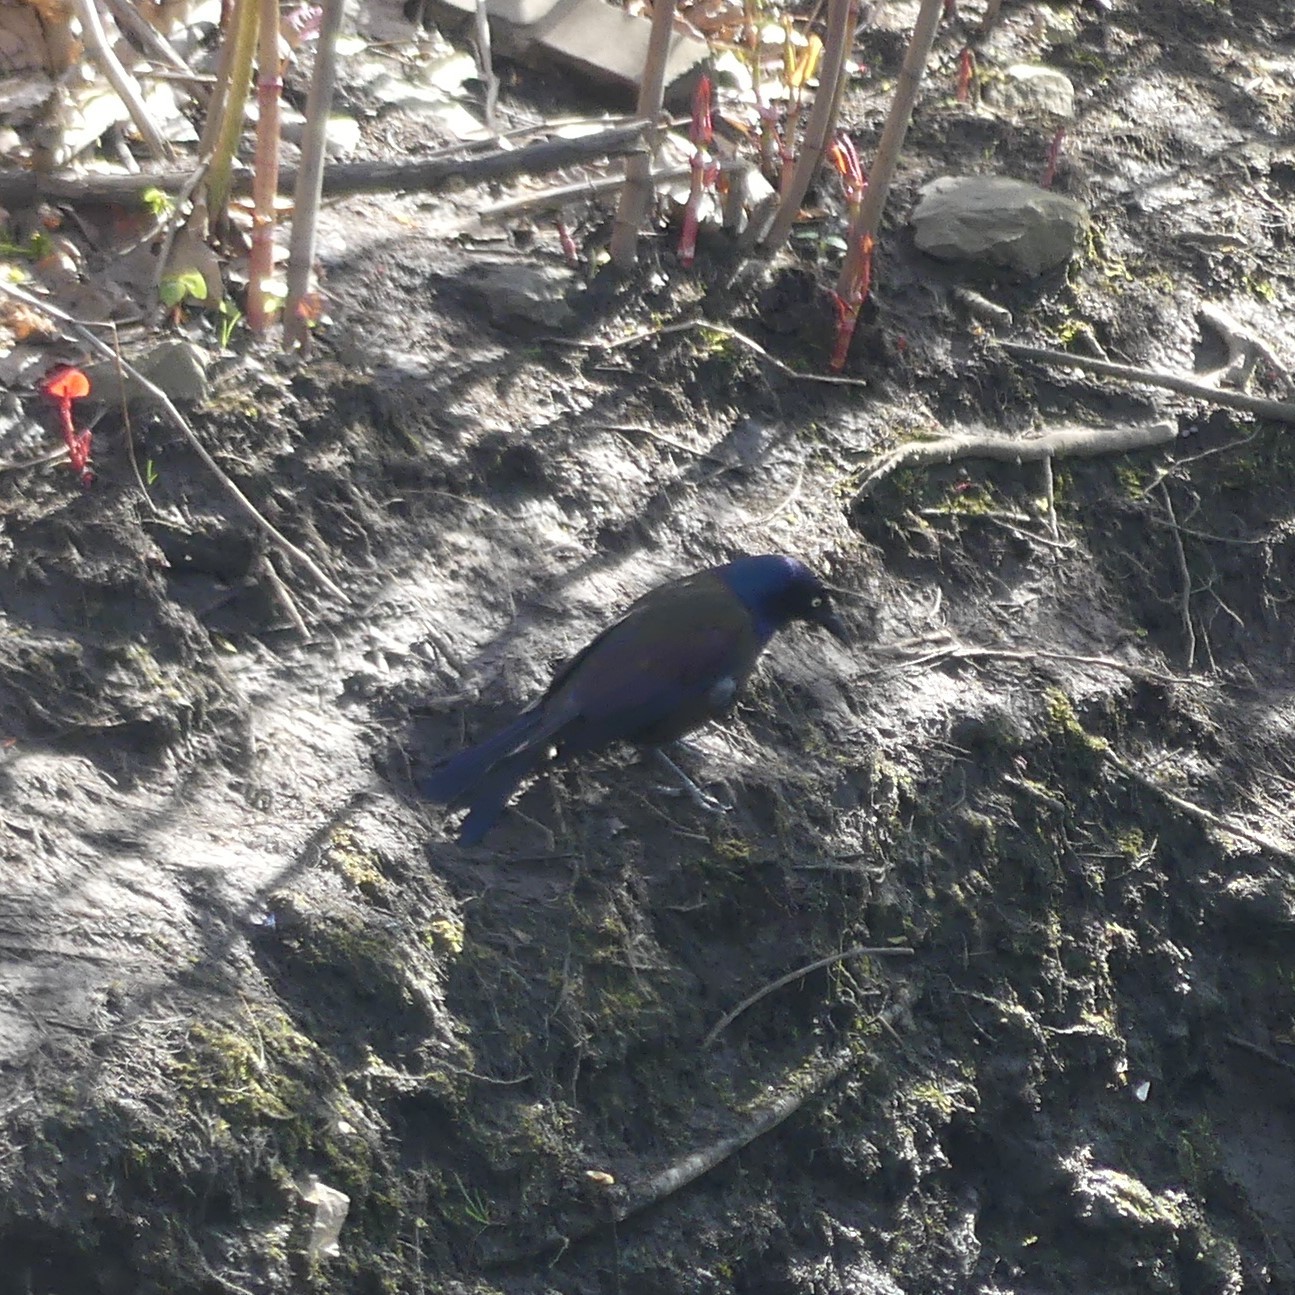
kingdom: Animalia
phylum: Chordata
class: Aves
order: Passeriformes
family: Icteridae
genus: Quiscalus
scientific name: Quiscalus quiscula
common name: Common grackle
